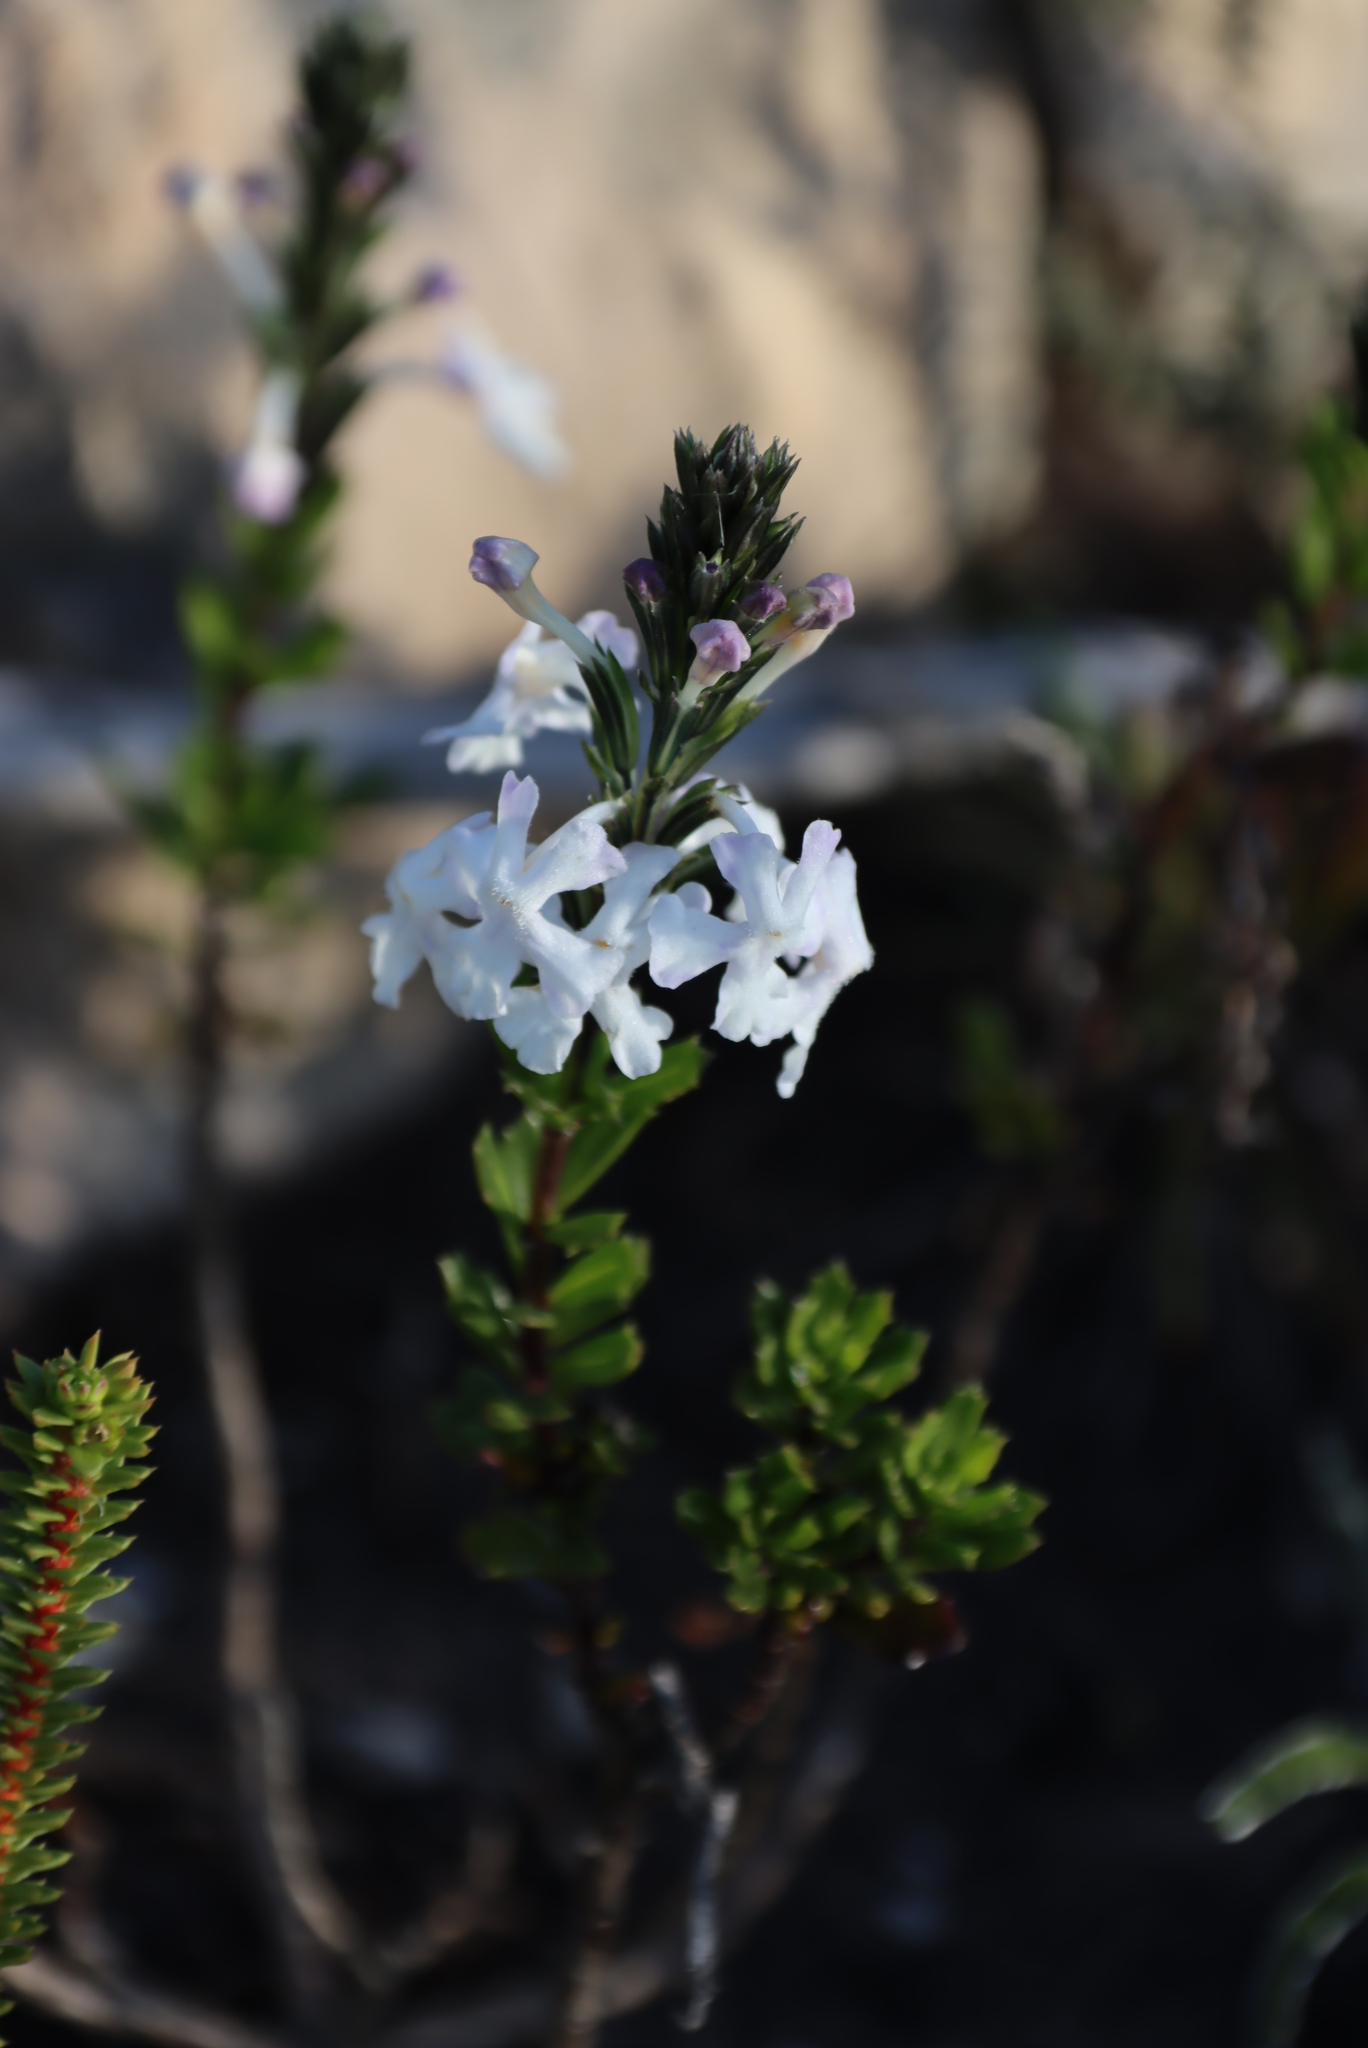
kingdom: Plantae
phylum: Tracheophyta
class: Magnoliopsida
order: Lamiales
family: Verbenaceae
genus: Chascanum
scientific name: Chascanum cernuum
